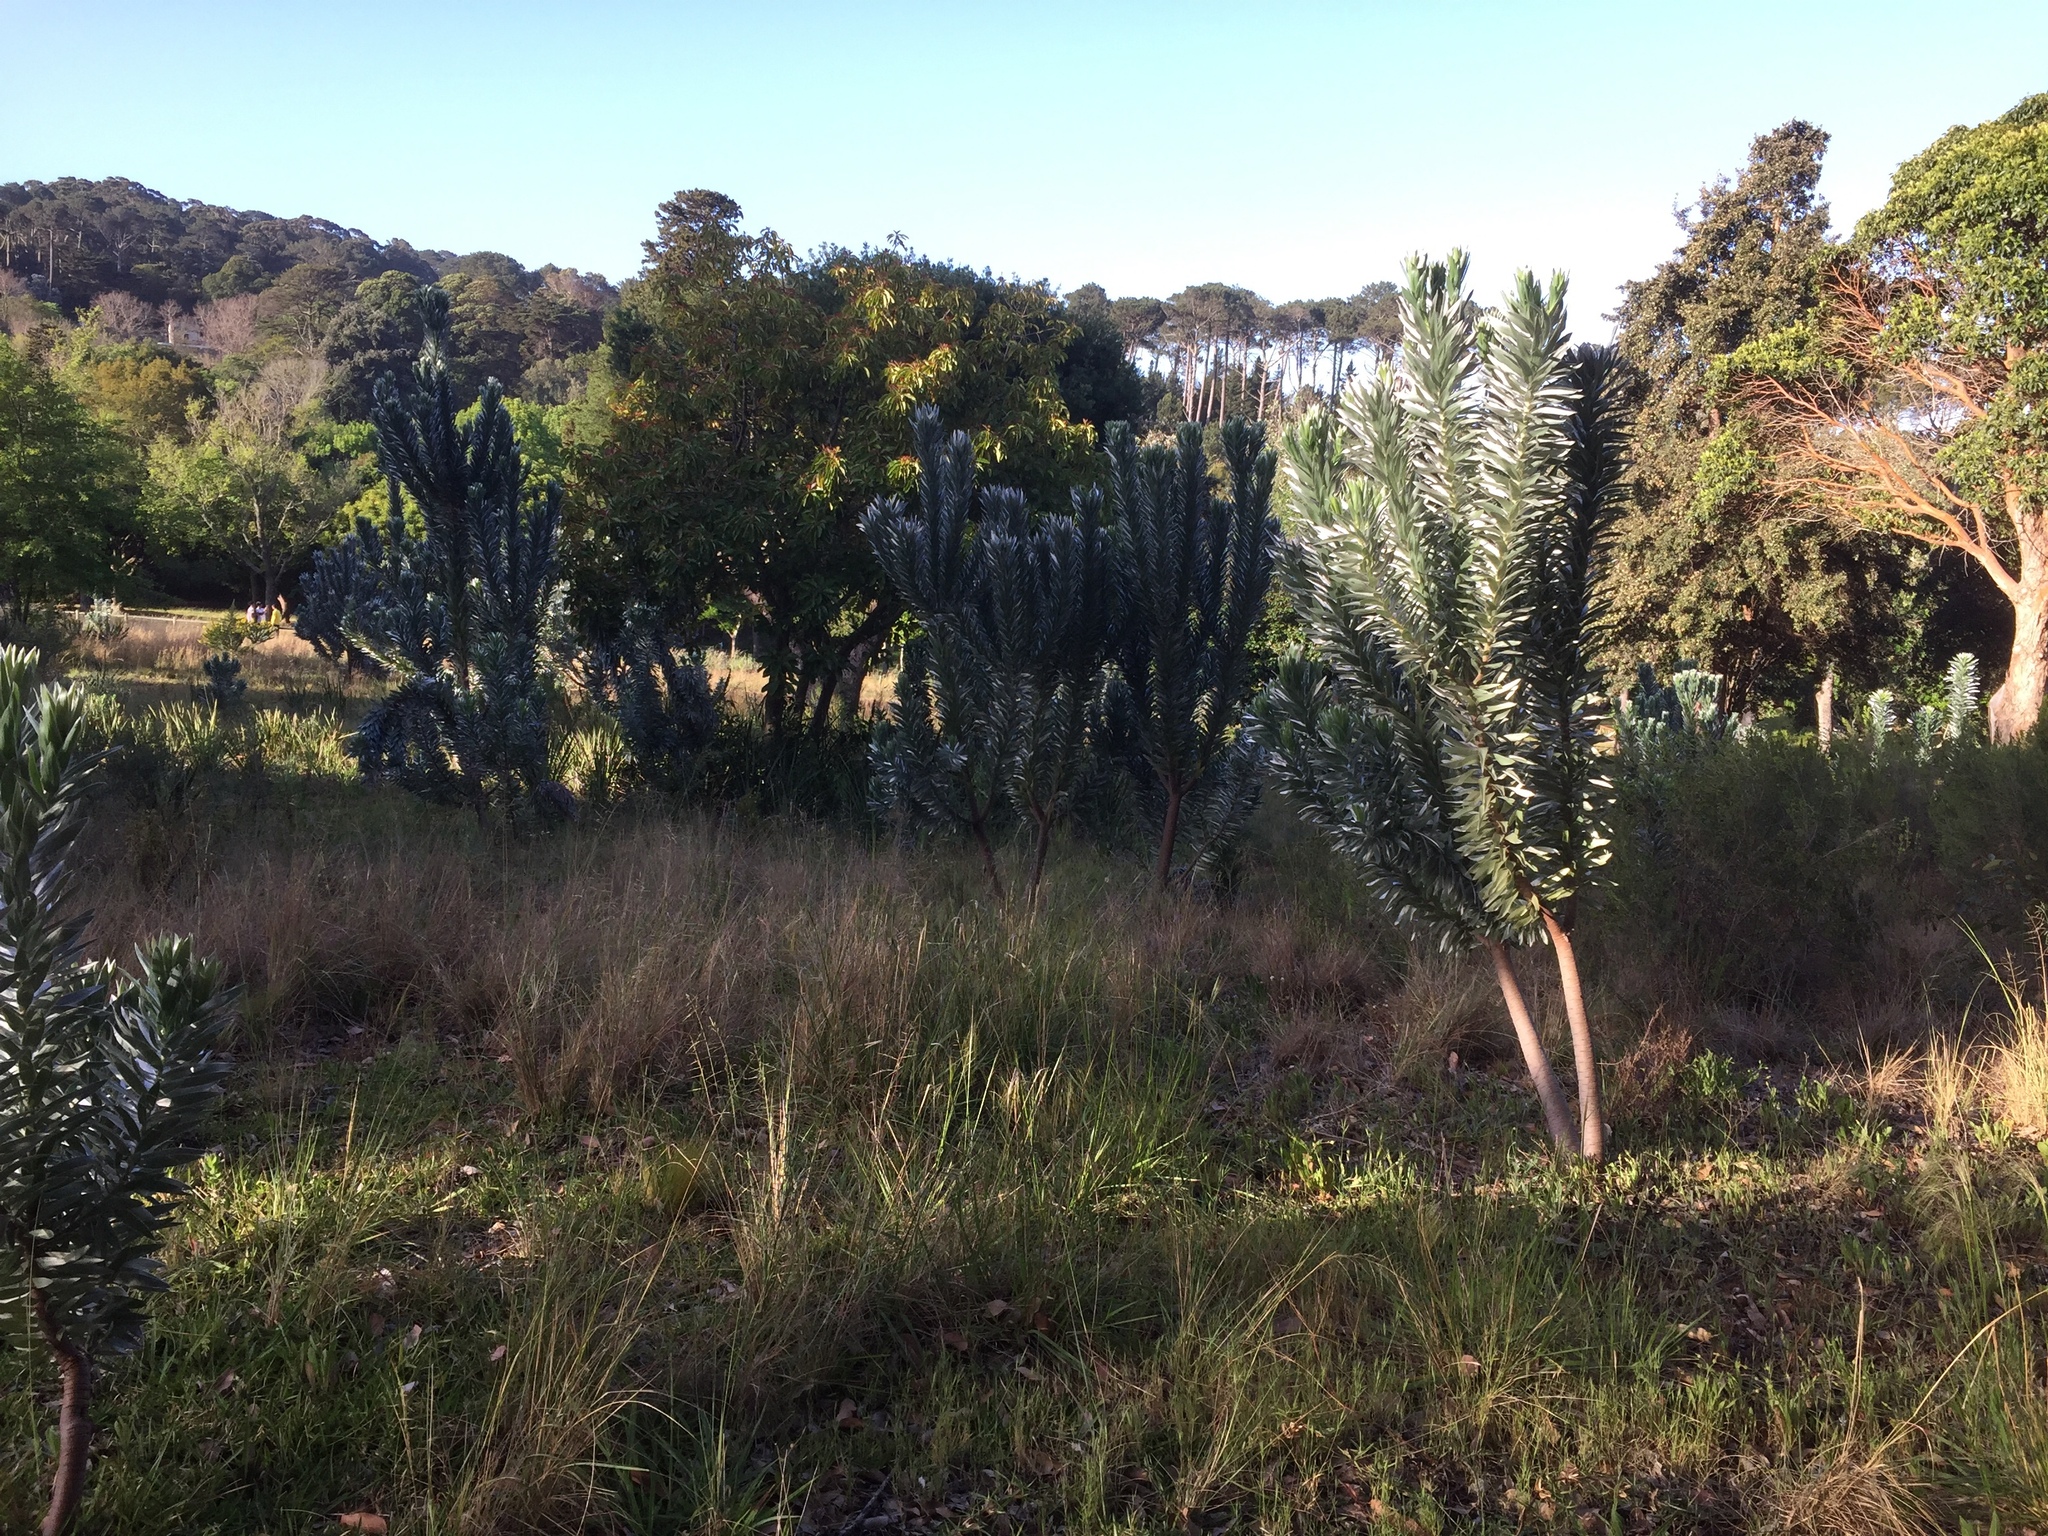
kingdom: Plantae
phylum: Tracheophyta
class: Magnoliopsida
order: Proteales
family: Proteaceae
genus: Leucadendron
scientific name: Leucadendron argenteum
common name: Cape silver tree
